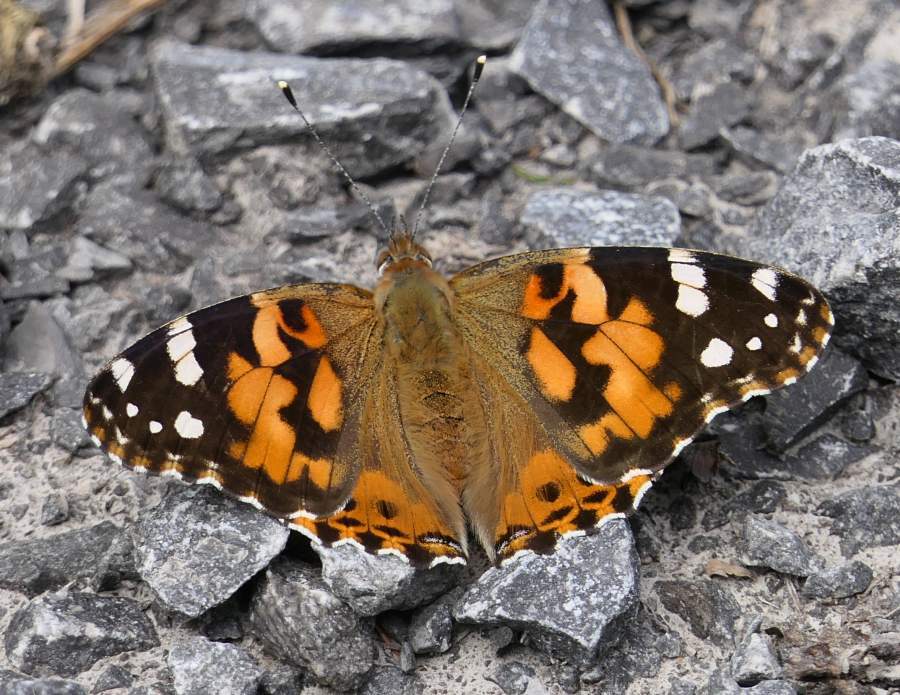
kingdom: Animalia
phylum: Arthropoda
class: Insecta
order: Lepidoptera
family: Nymphalidae
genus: Vanessa
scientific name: Vanessa cardui
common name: Painted lady
